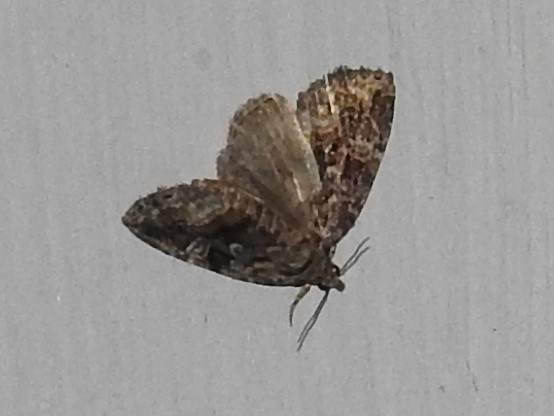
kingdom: Animalia
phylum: Arthropoda
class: Insecta
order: Lepidoptera
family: Noctuidae
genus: Protodeltote
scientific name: Protodeltote muscosula
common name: Large mossy glyph
